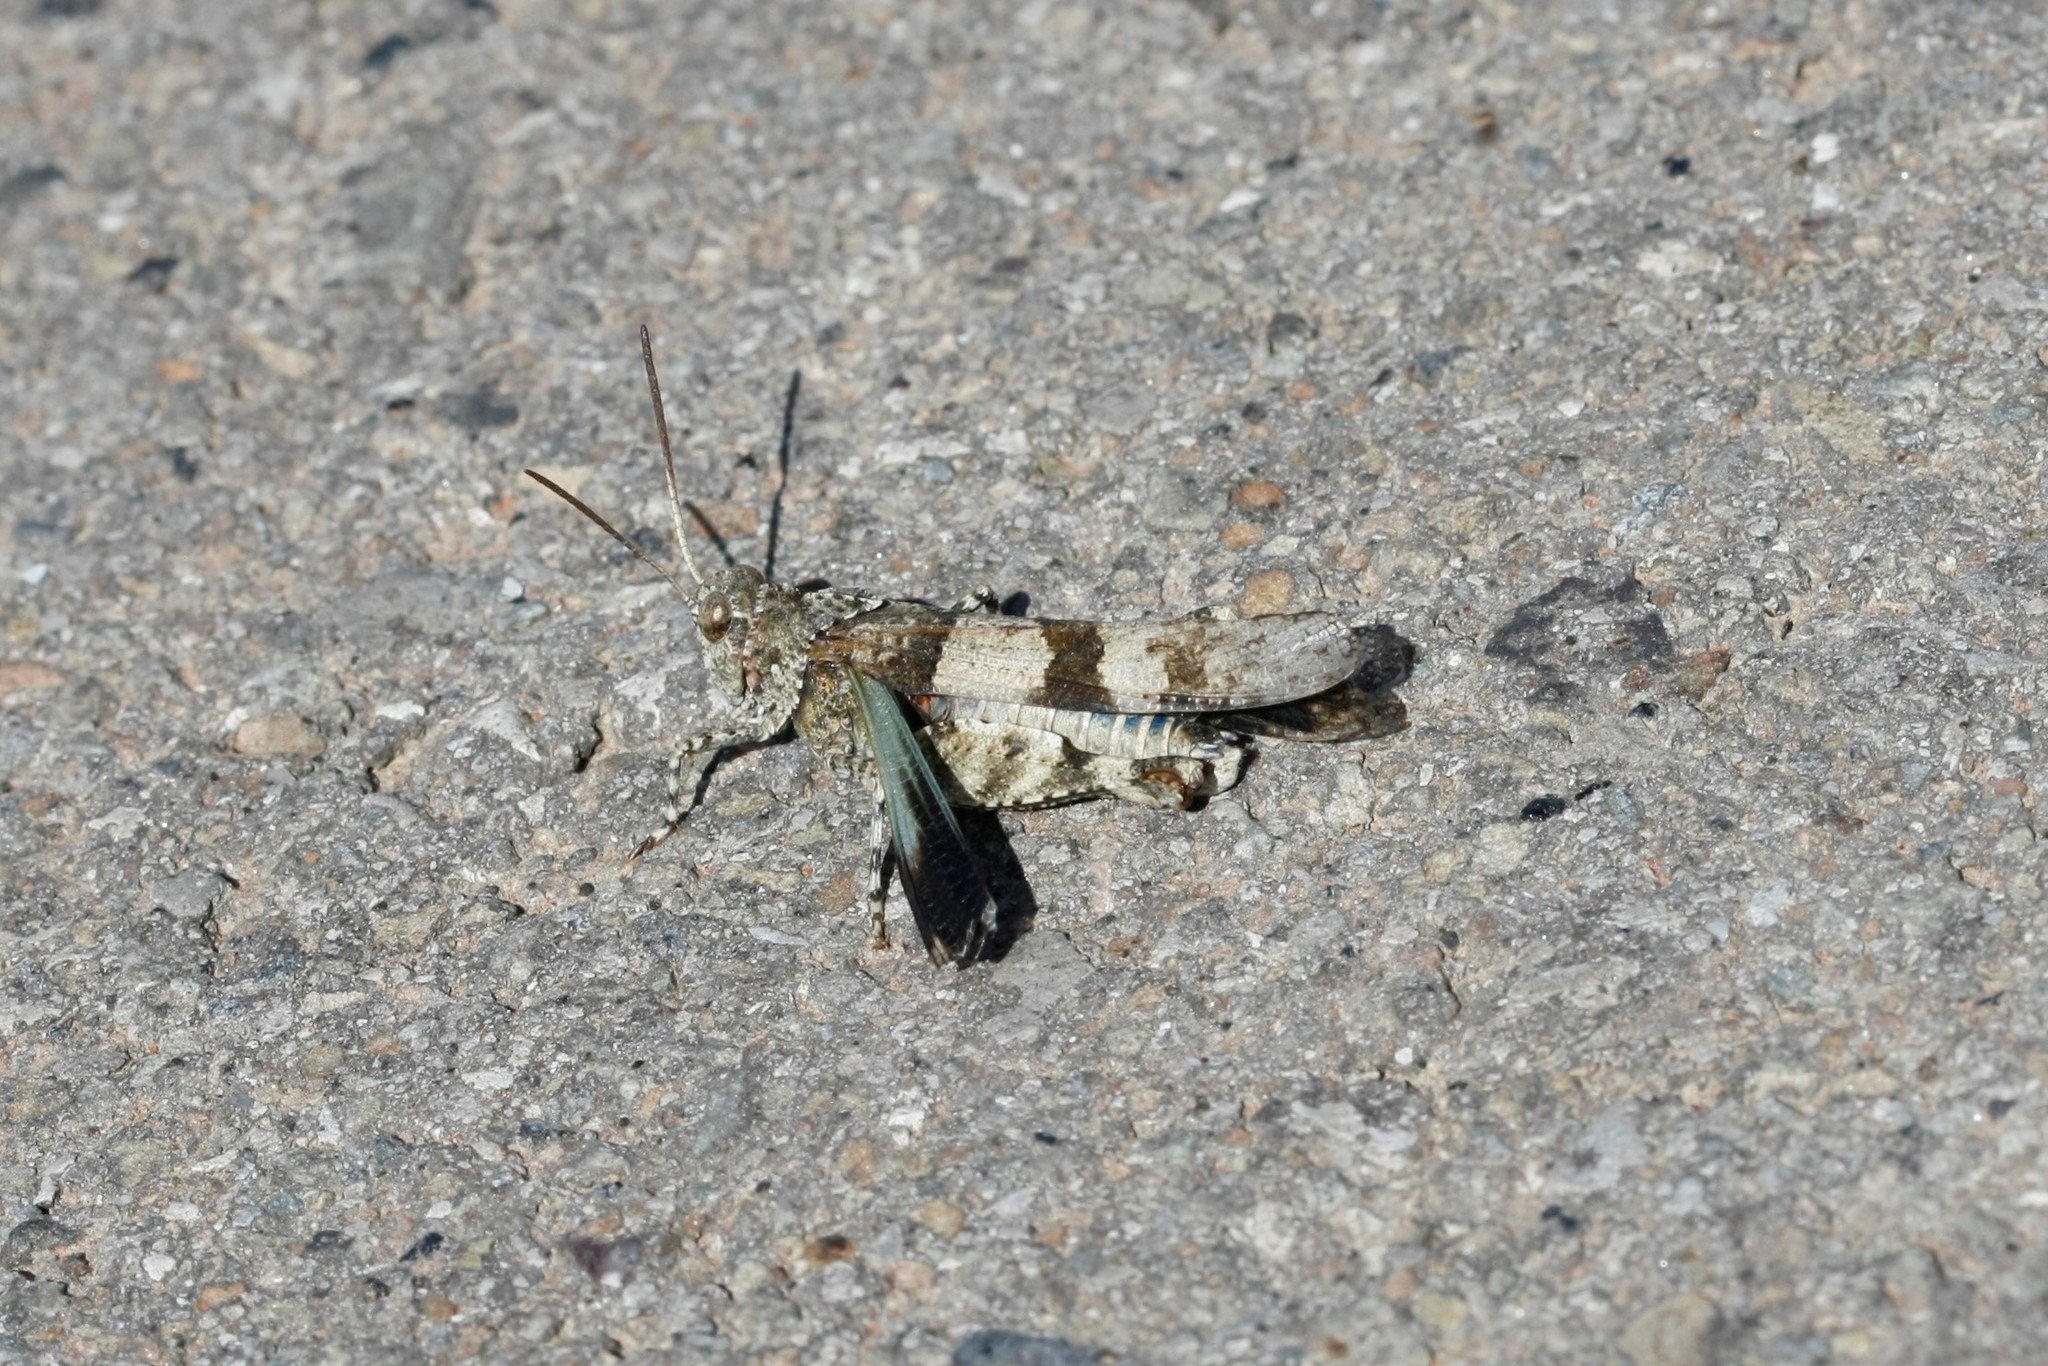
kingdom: Animalia
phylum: Arthropoda
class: Insecta
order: Orthoptera
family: Acrididae
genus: Oedipoda
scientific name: Oedipoda caerulescens
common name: Blue-winged grasshopper
